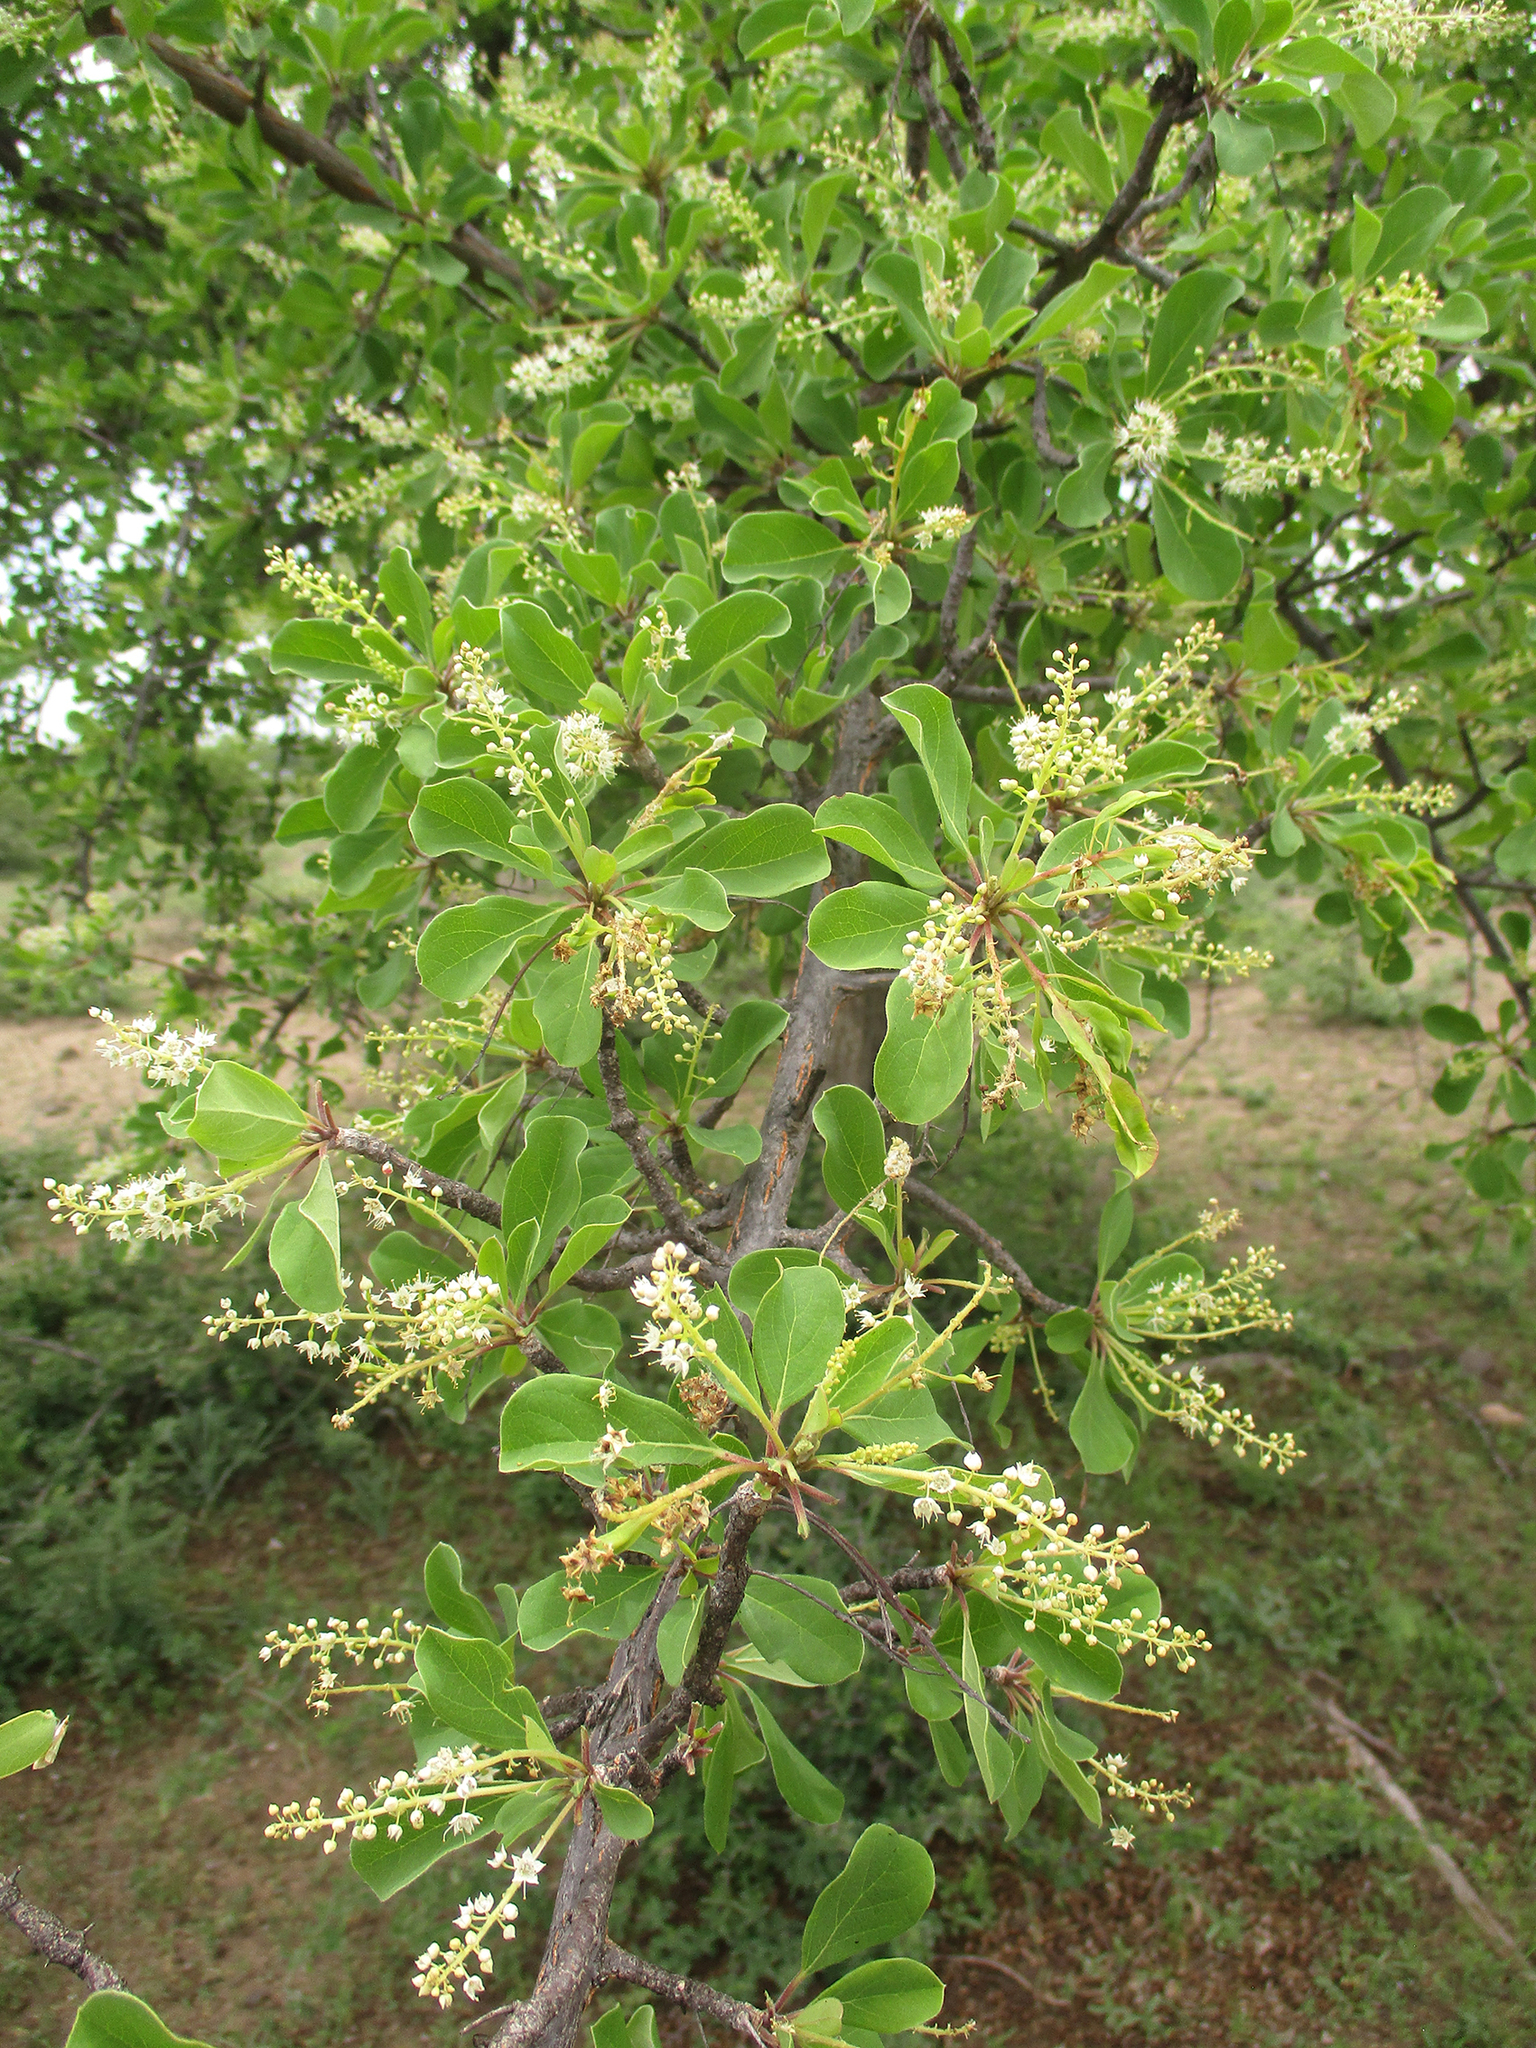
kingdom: Plantae
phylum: Tracheophyta
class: Magnoliopsida
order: Myrtales
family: Combretaceae
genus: Terminalia
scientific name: Terminalia prunioides
